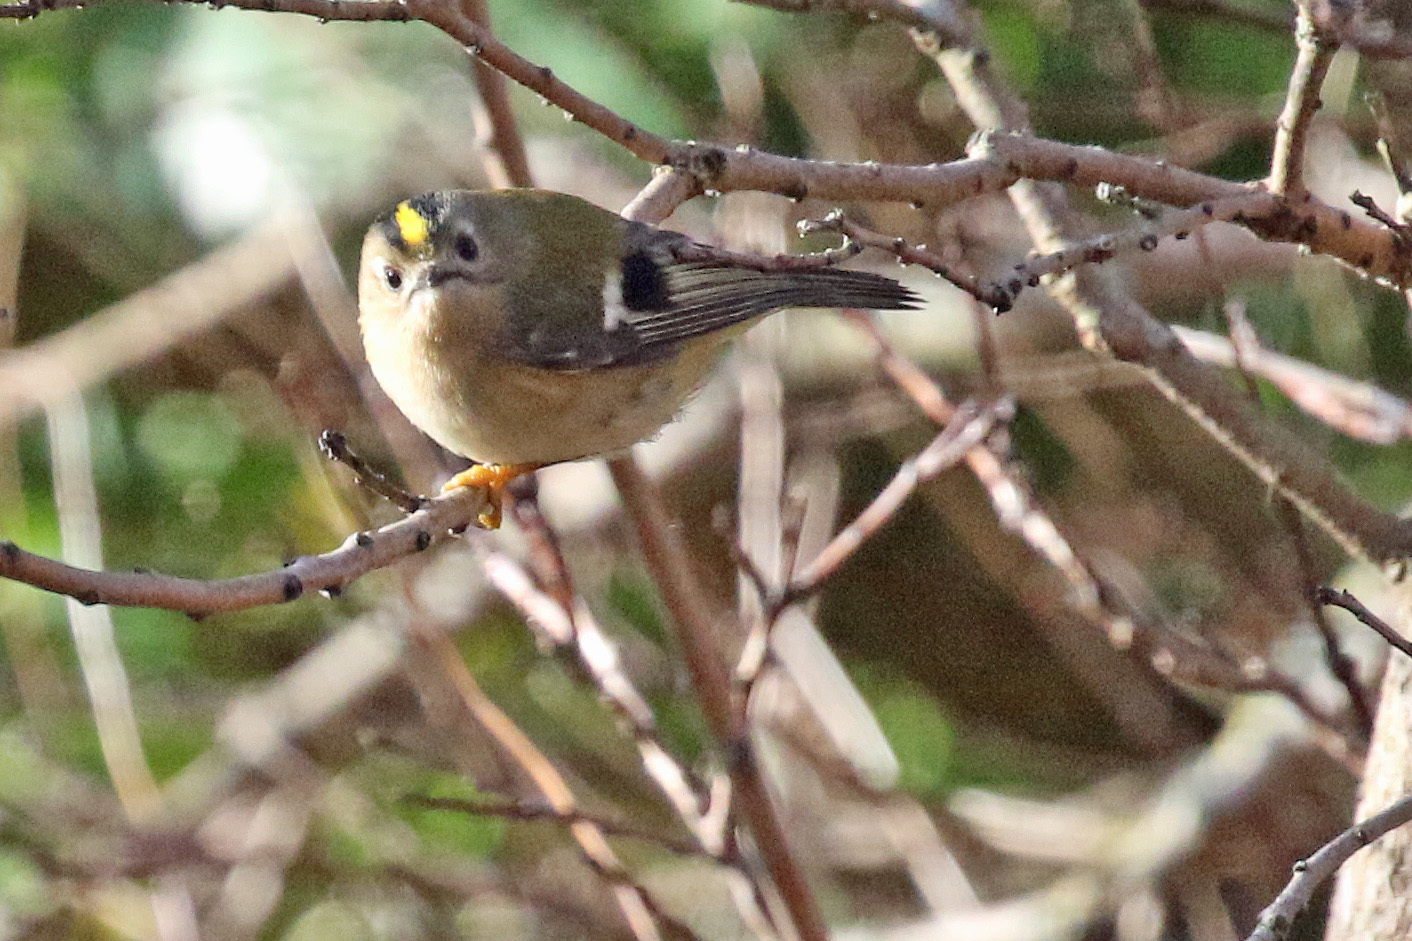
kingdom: Animalia
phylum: Chordata
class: Aves
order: Passeriformes
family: Regulidae
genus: Regulus
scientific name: Regulus regulus
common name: Goldcrest
